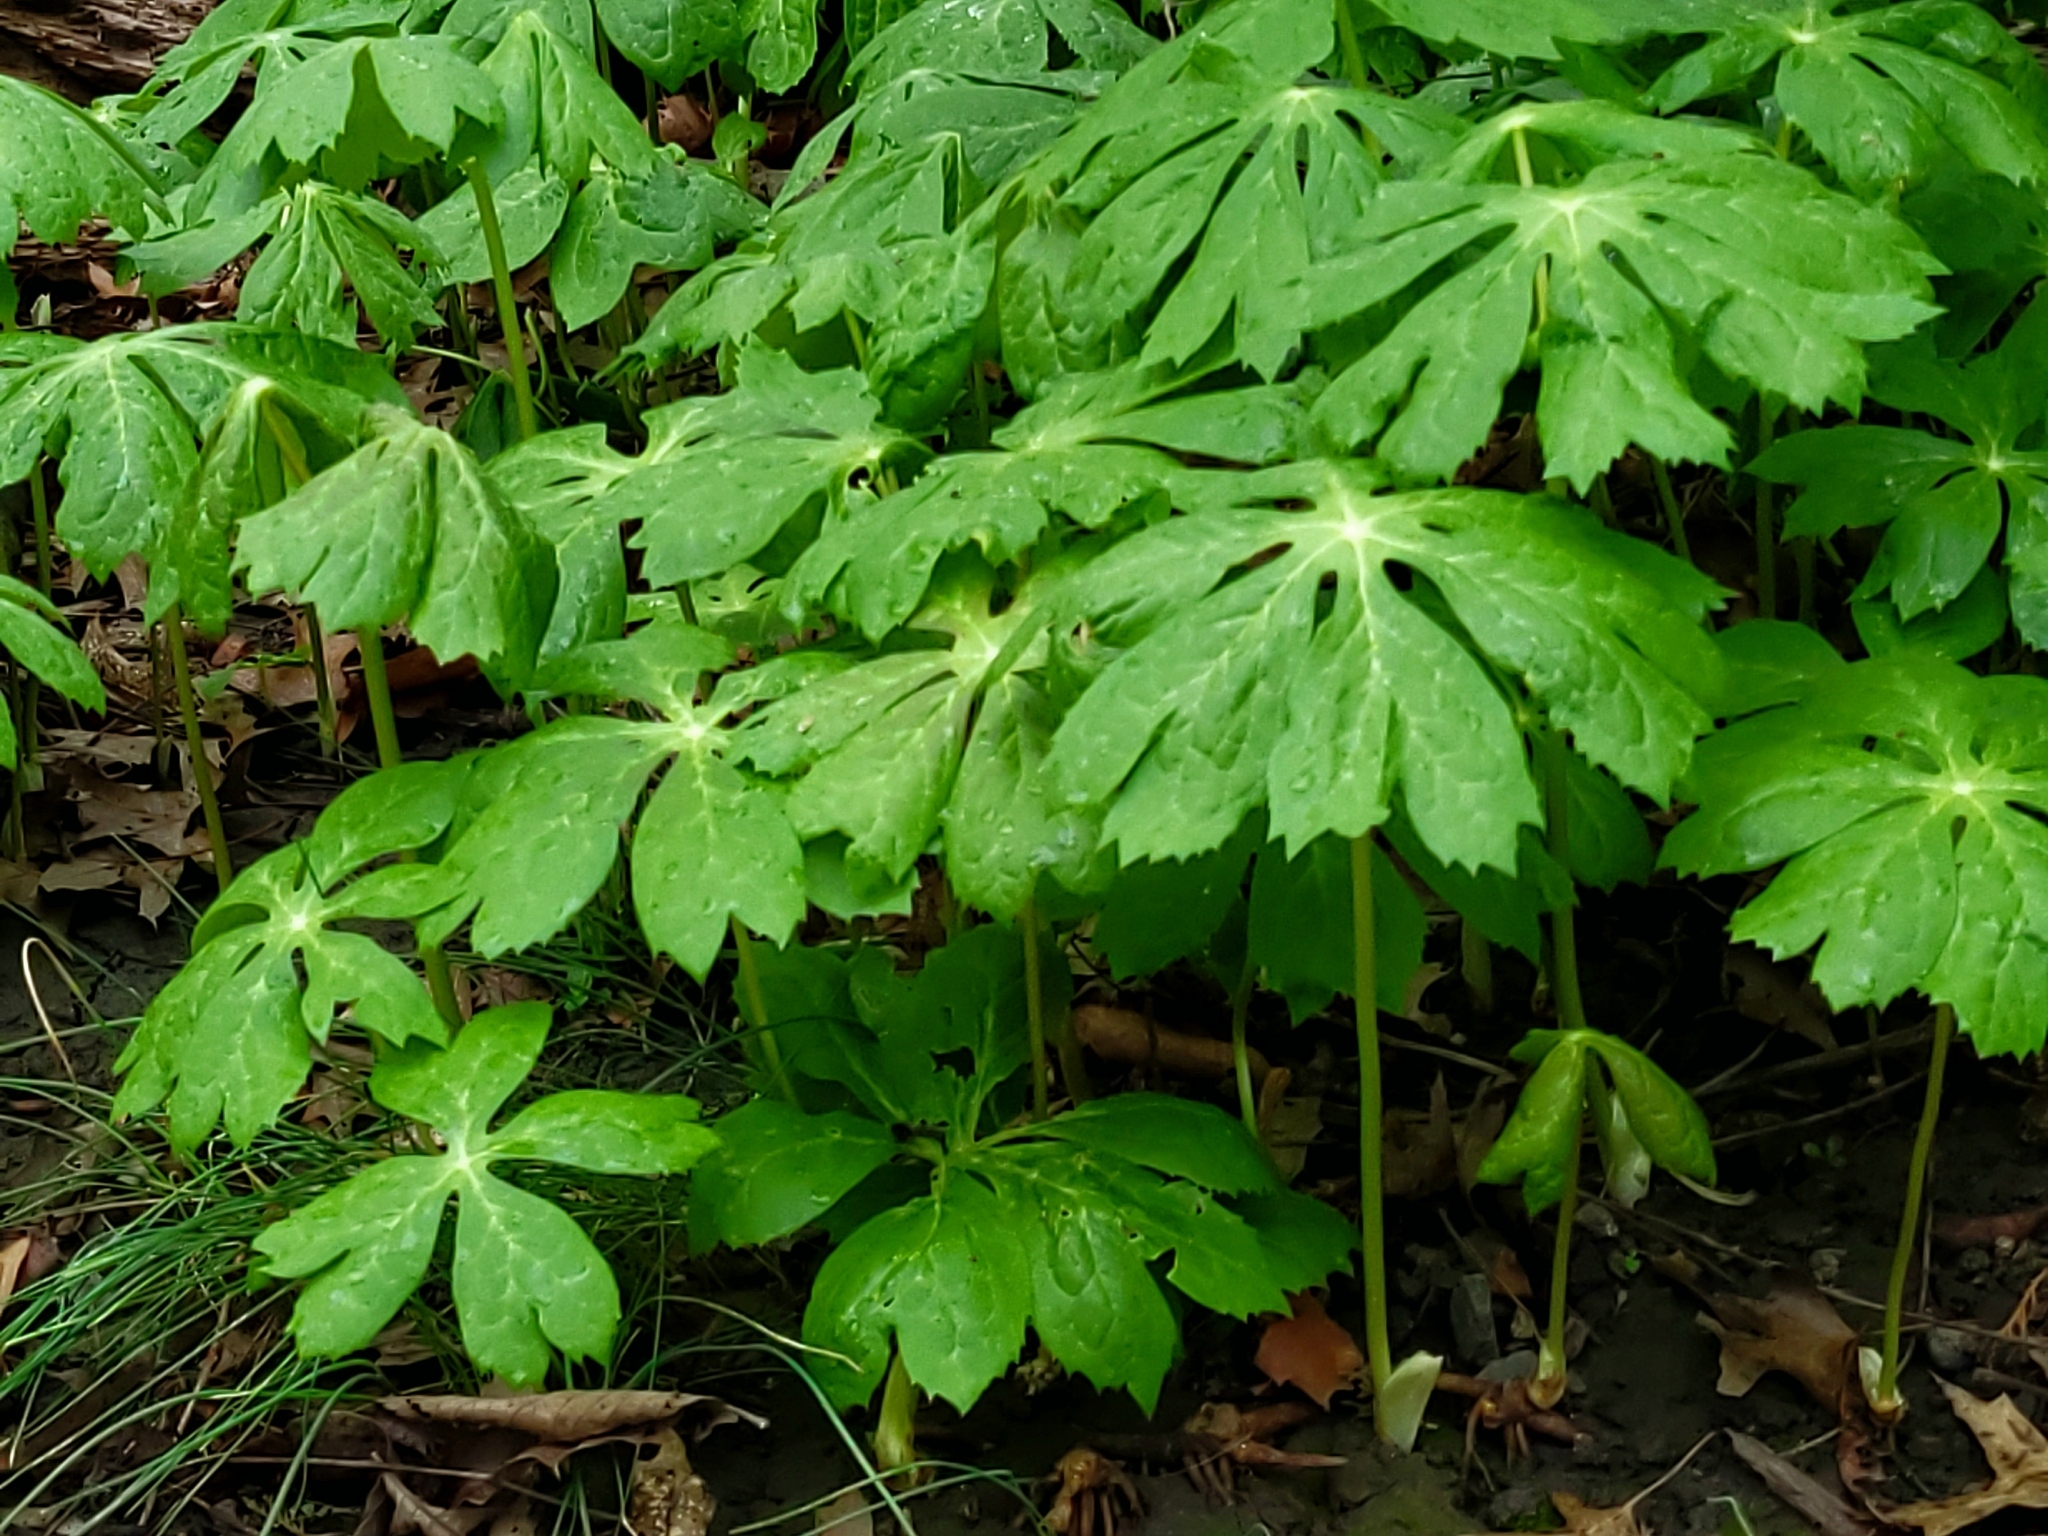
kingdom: Plantae
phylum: Tracheophyta
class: Magnoliopsida
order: Ranunculales
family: Berberidaceae
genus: Podophyllum
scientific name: Podophyllum peltatum
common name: Wild mandrake
